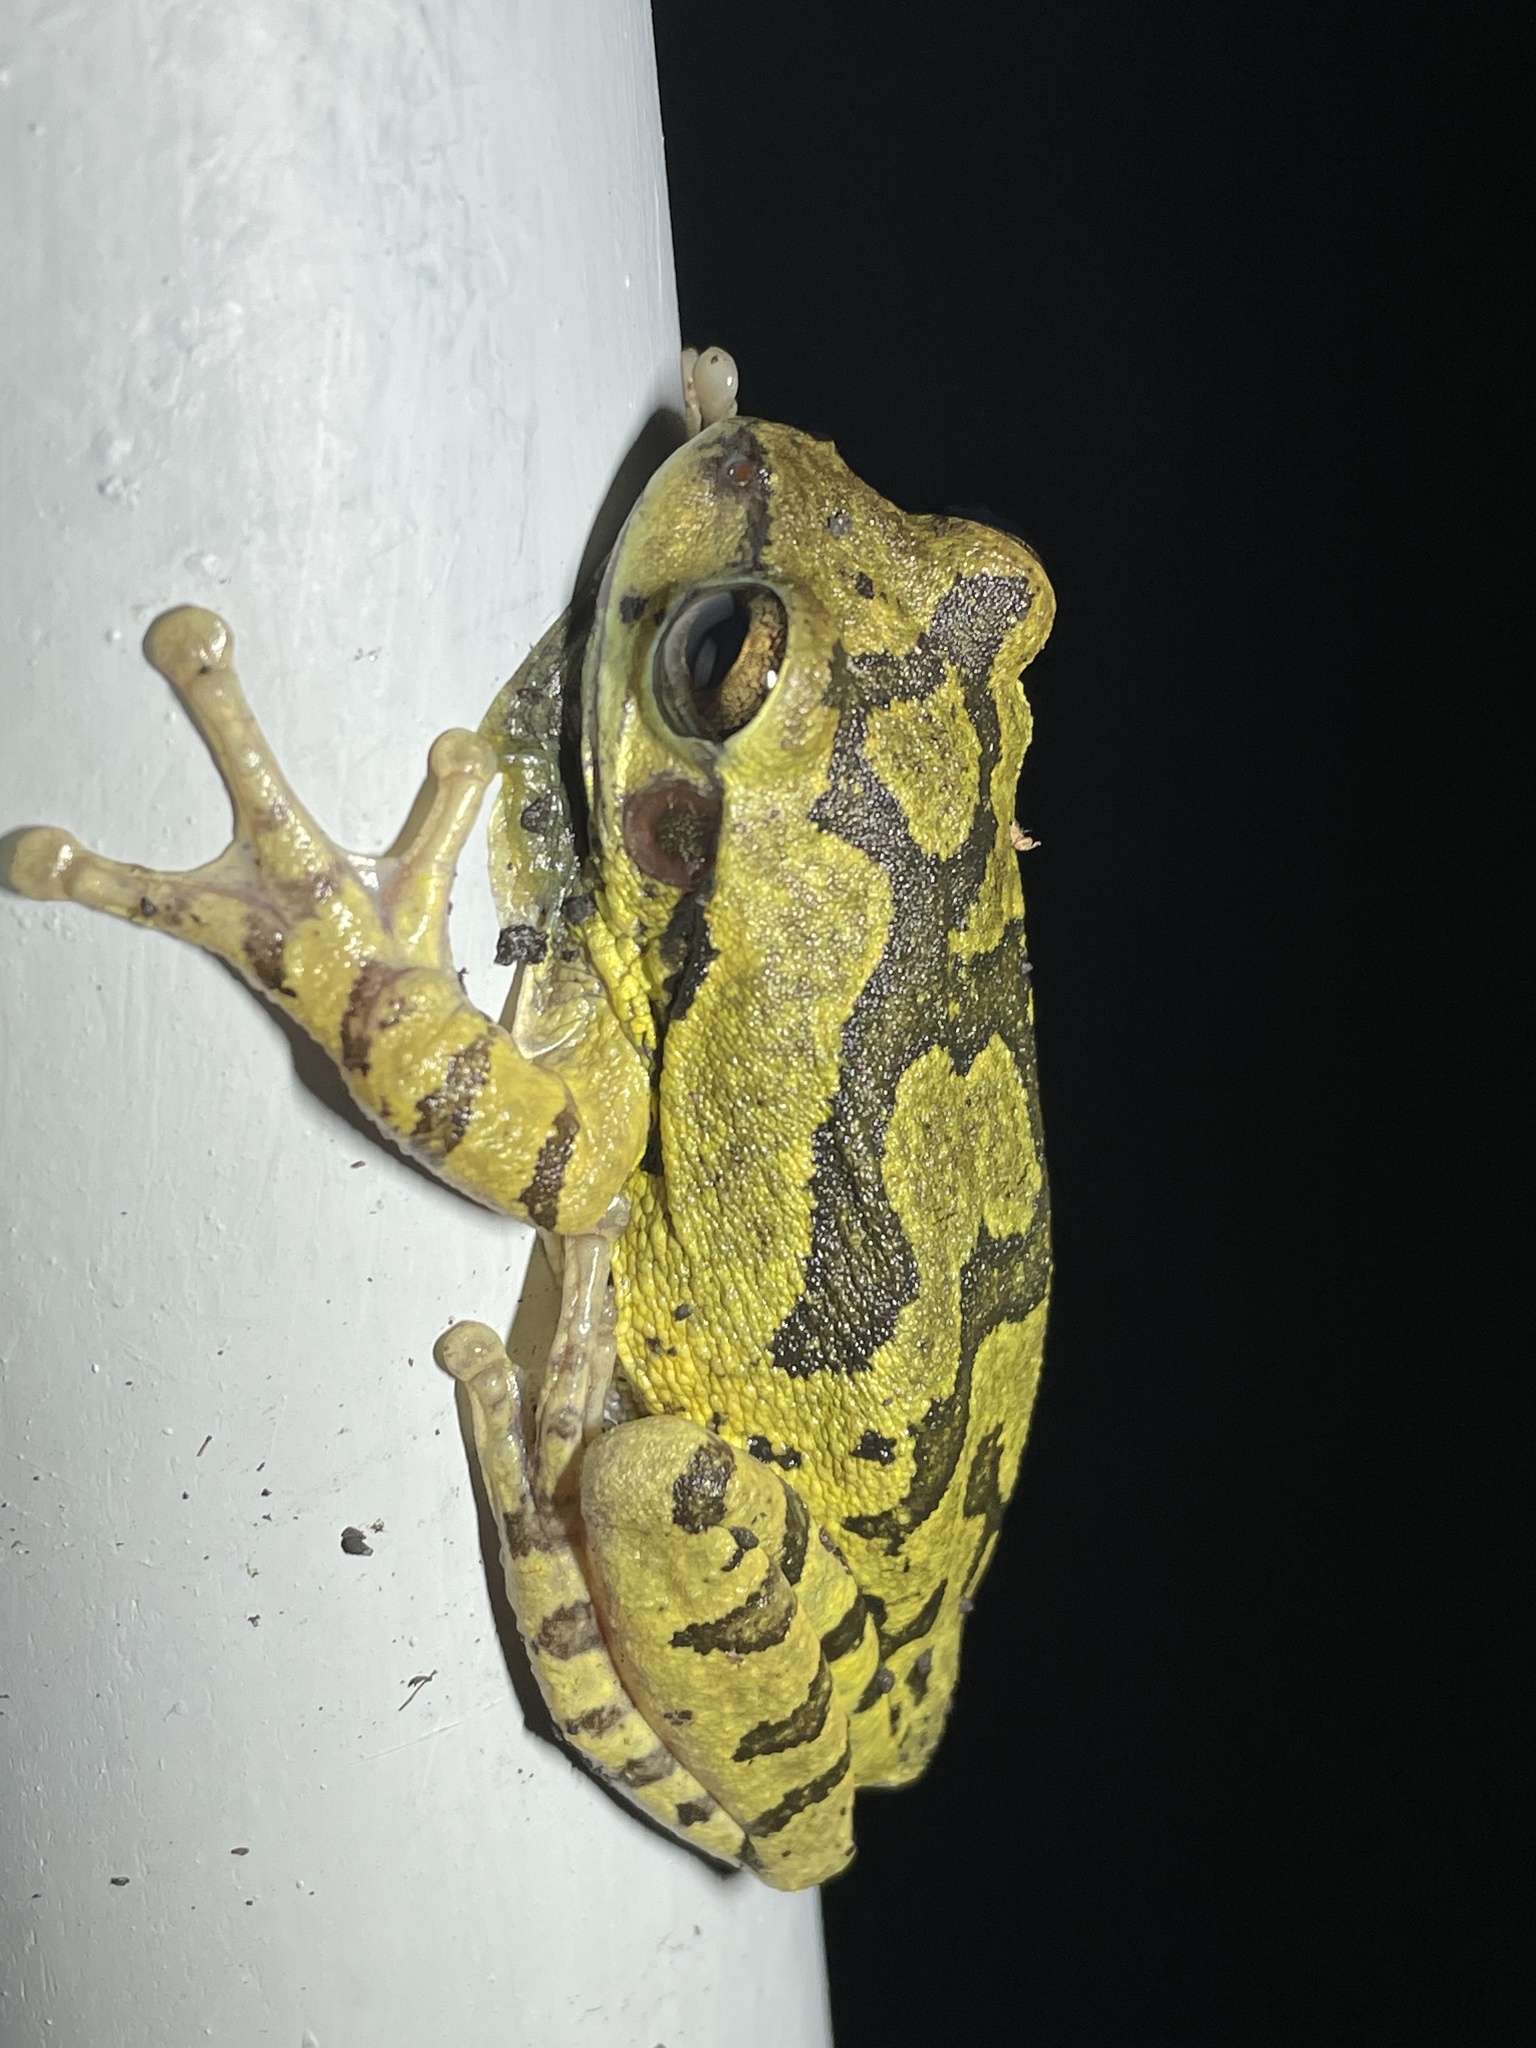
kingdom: Animalia
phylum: Chordata
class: Amphibia
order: Anura
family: Hylidae
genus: Smilisca
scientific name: Smilisca baudinii
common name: Mexican smilisca
